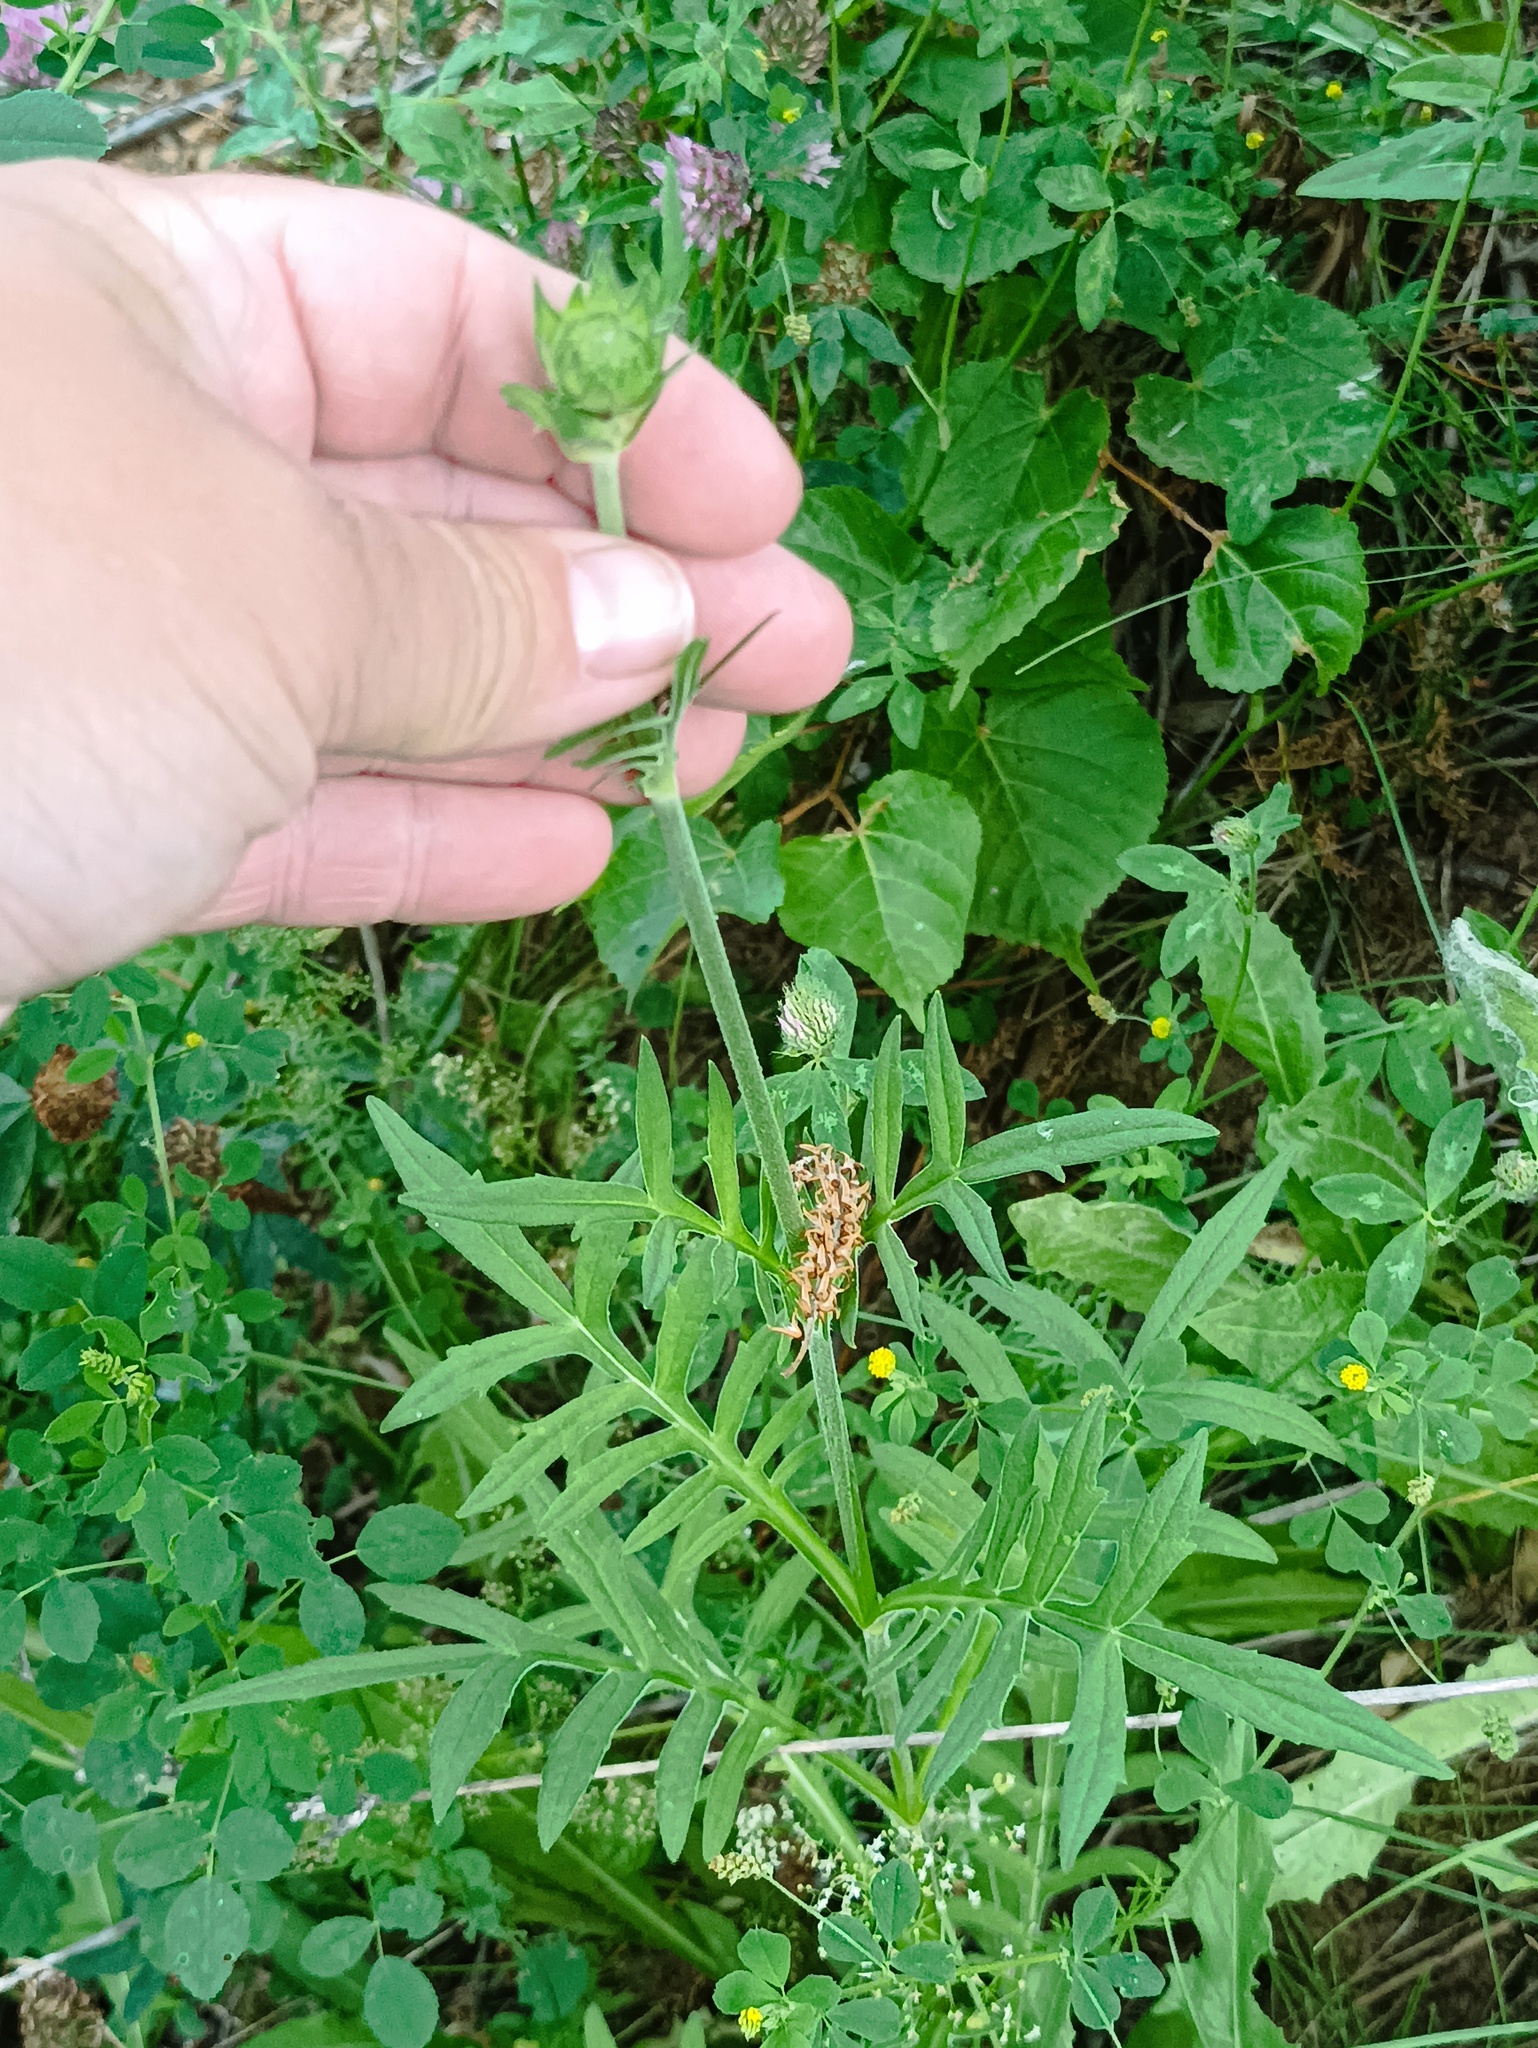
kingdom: Plantae
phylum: Tracheophyta
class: Magnoliopsida
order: Dipsacales
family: Caprifoliaceae
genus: Knautia
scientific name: Knautia arvensis
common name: Field scabiosa
